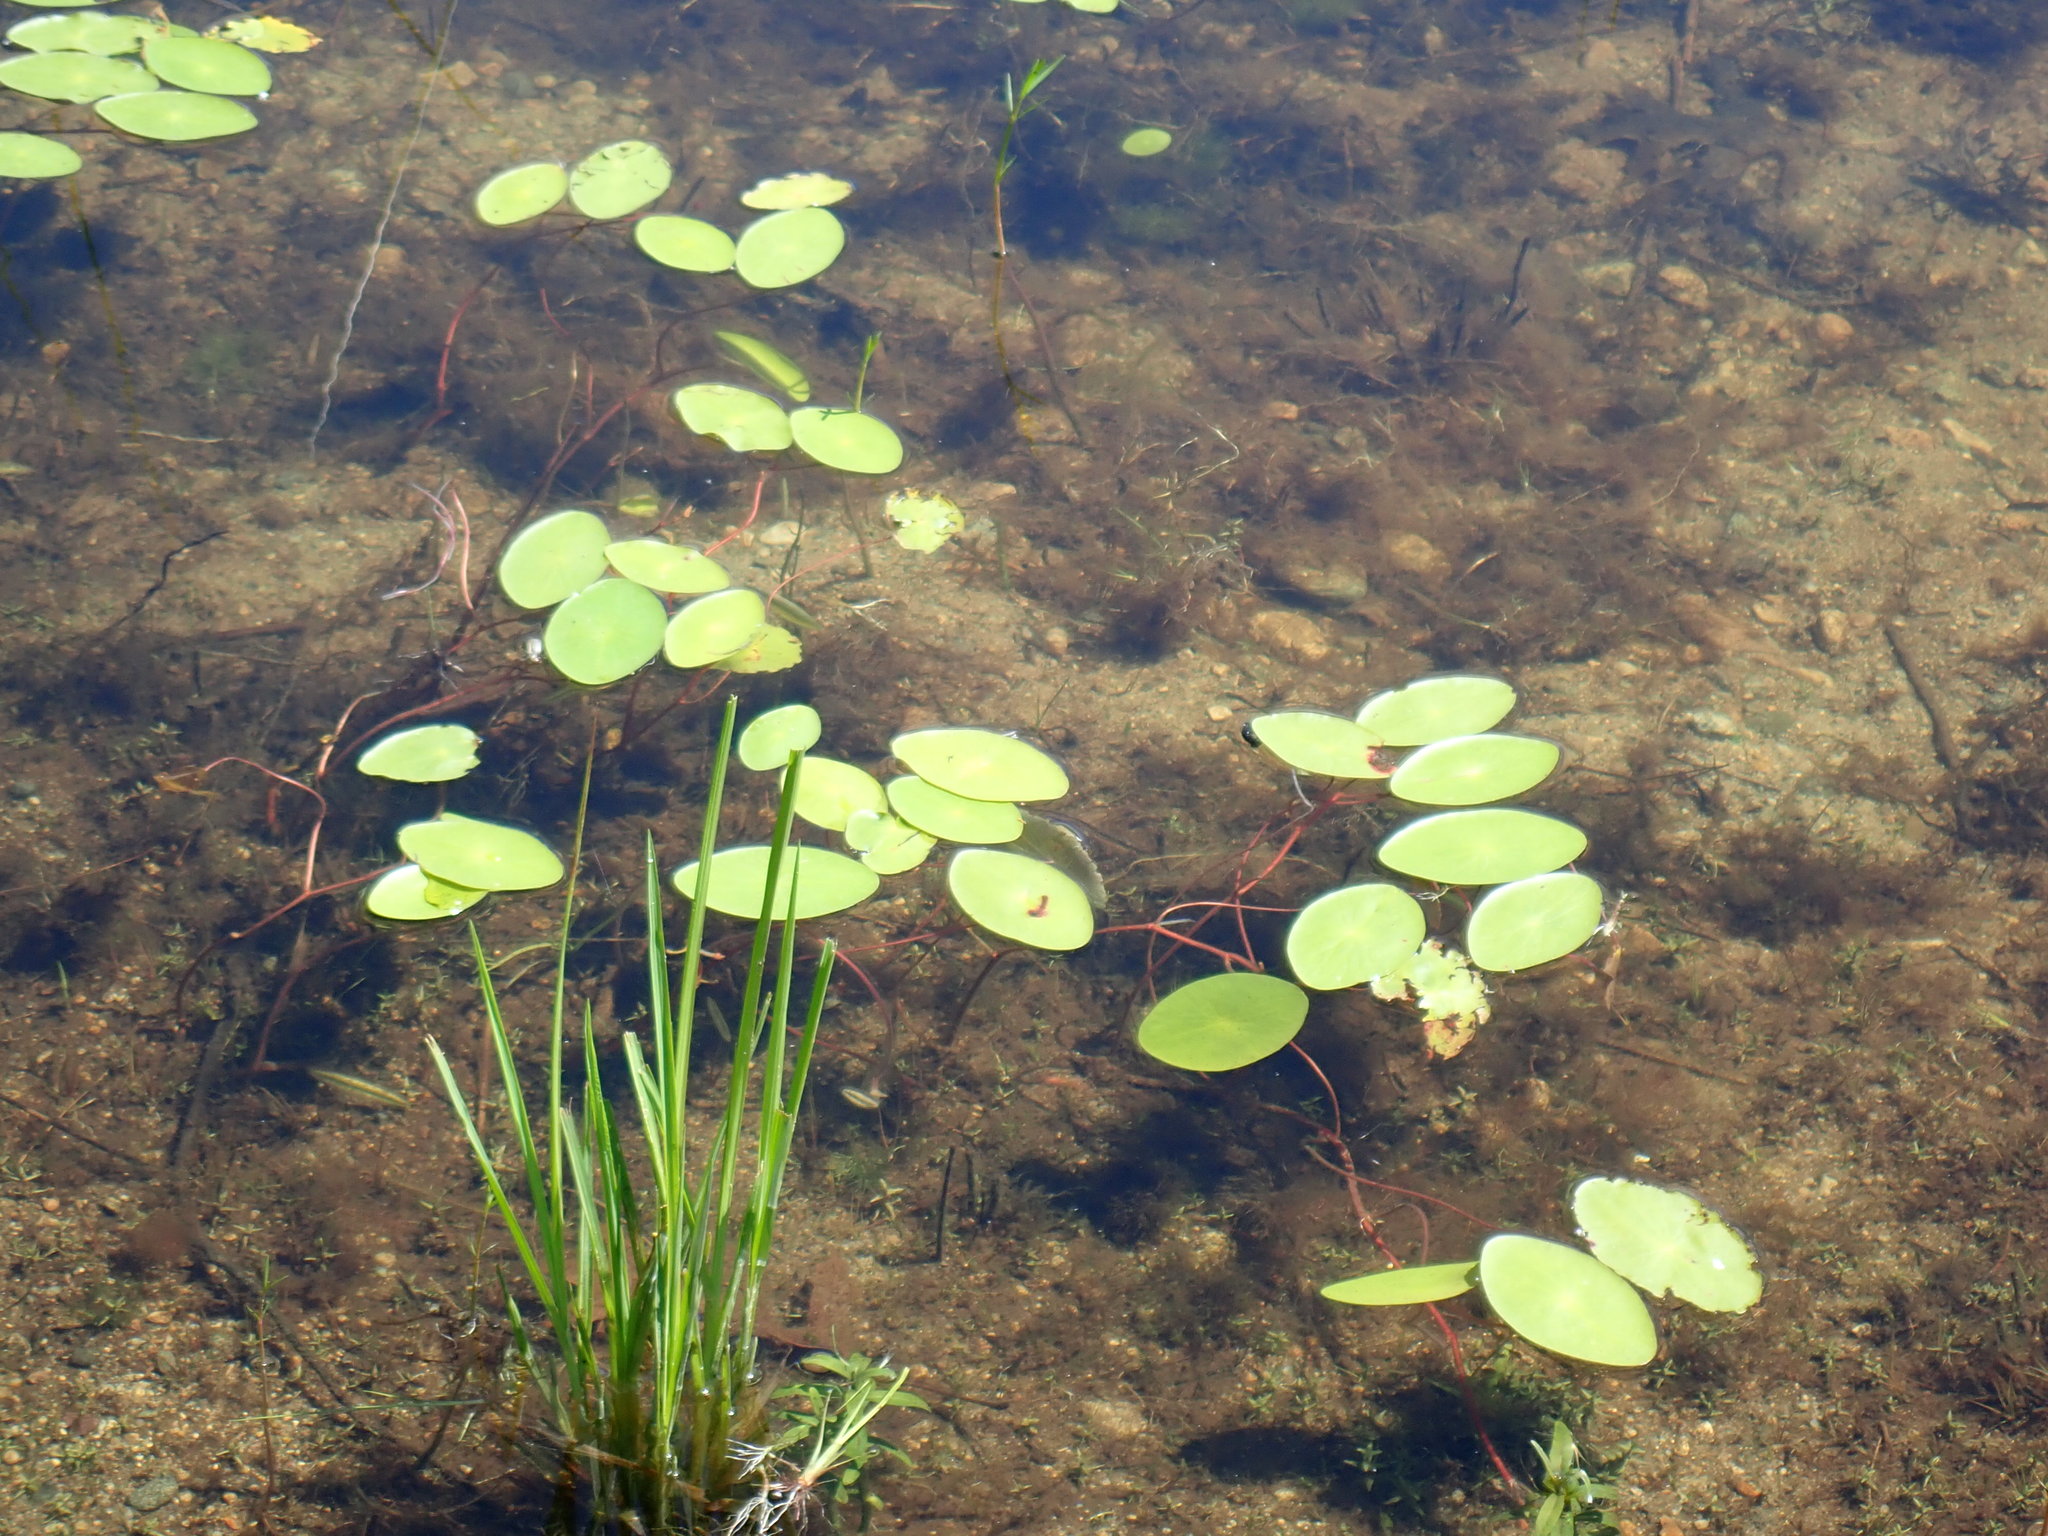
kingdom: Plantae
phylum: Tracheophyta
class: Magnoliopsida
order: Nymphaeales
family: Cabombaceae
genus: Brasenia
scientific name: Brasenia schreberi
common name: Water-shield
